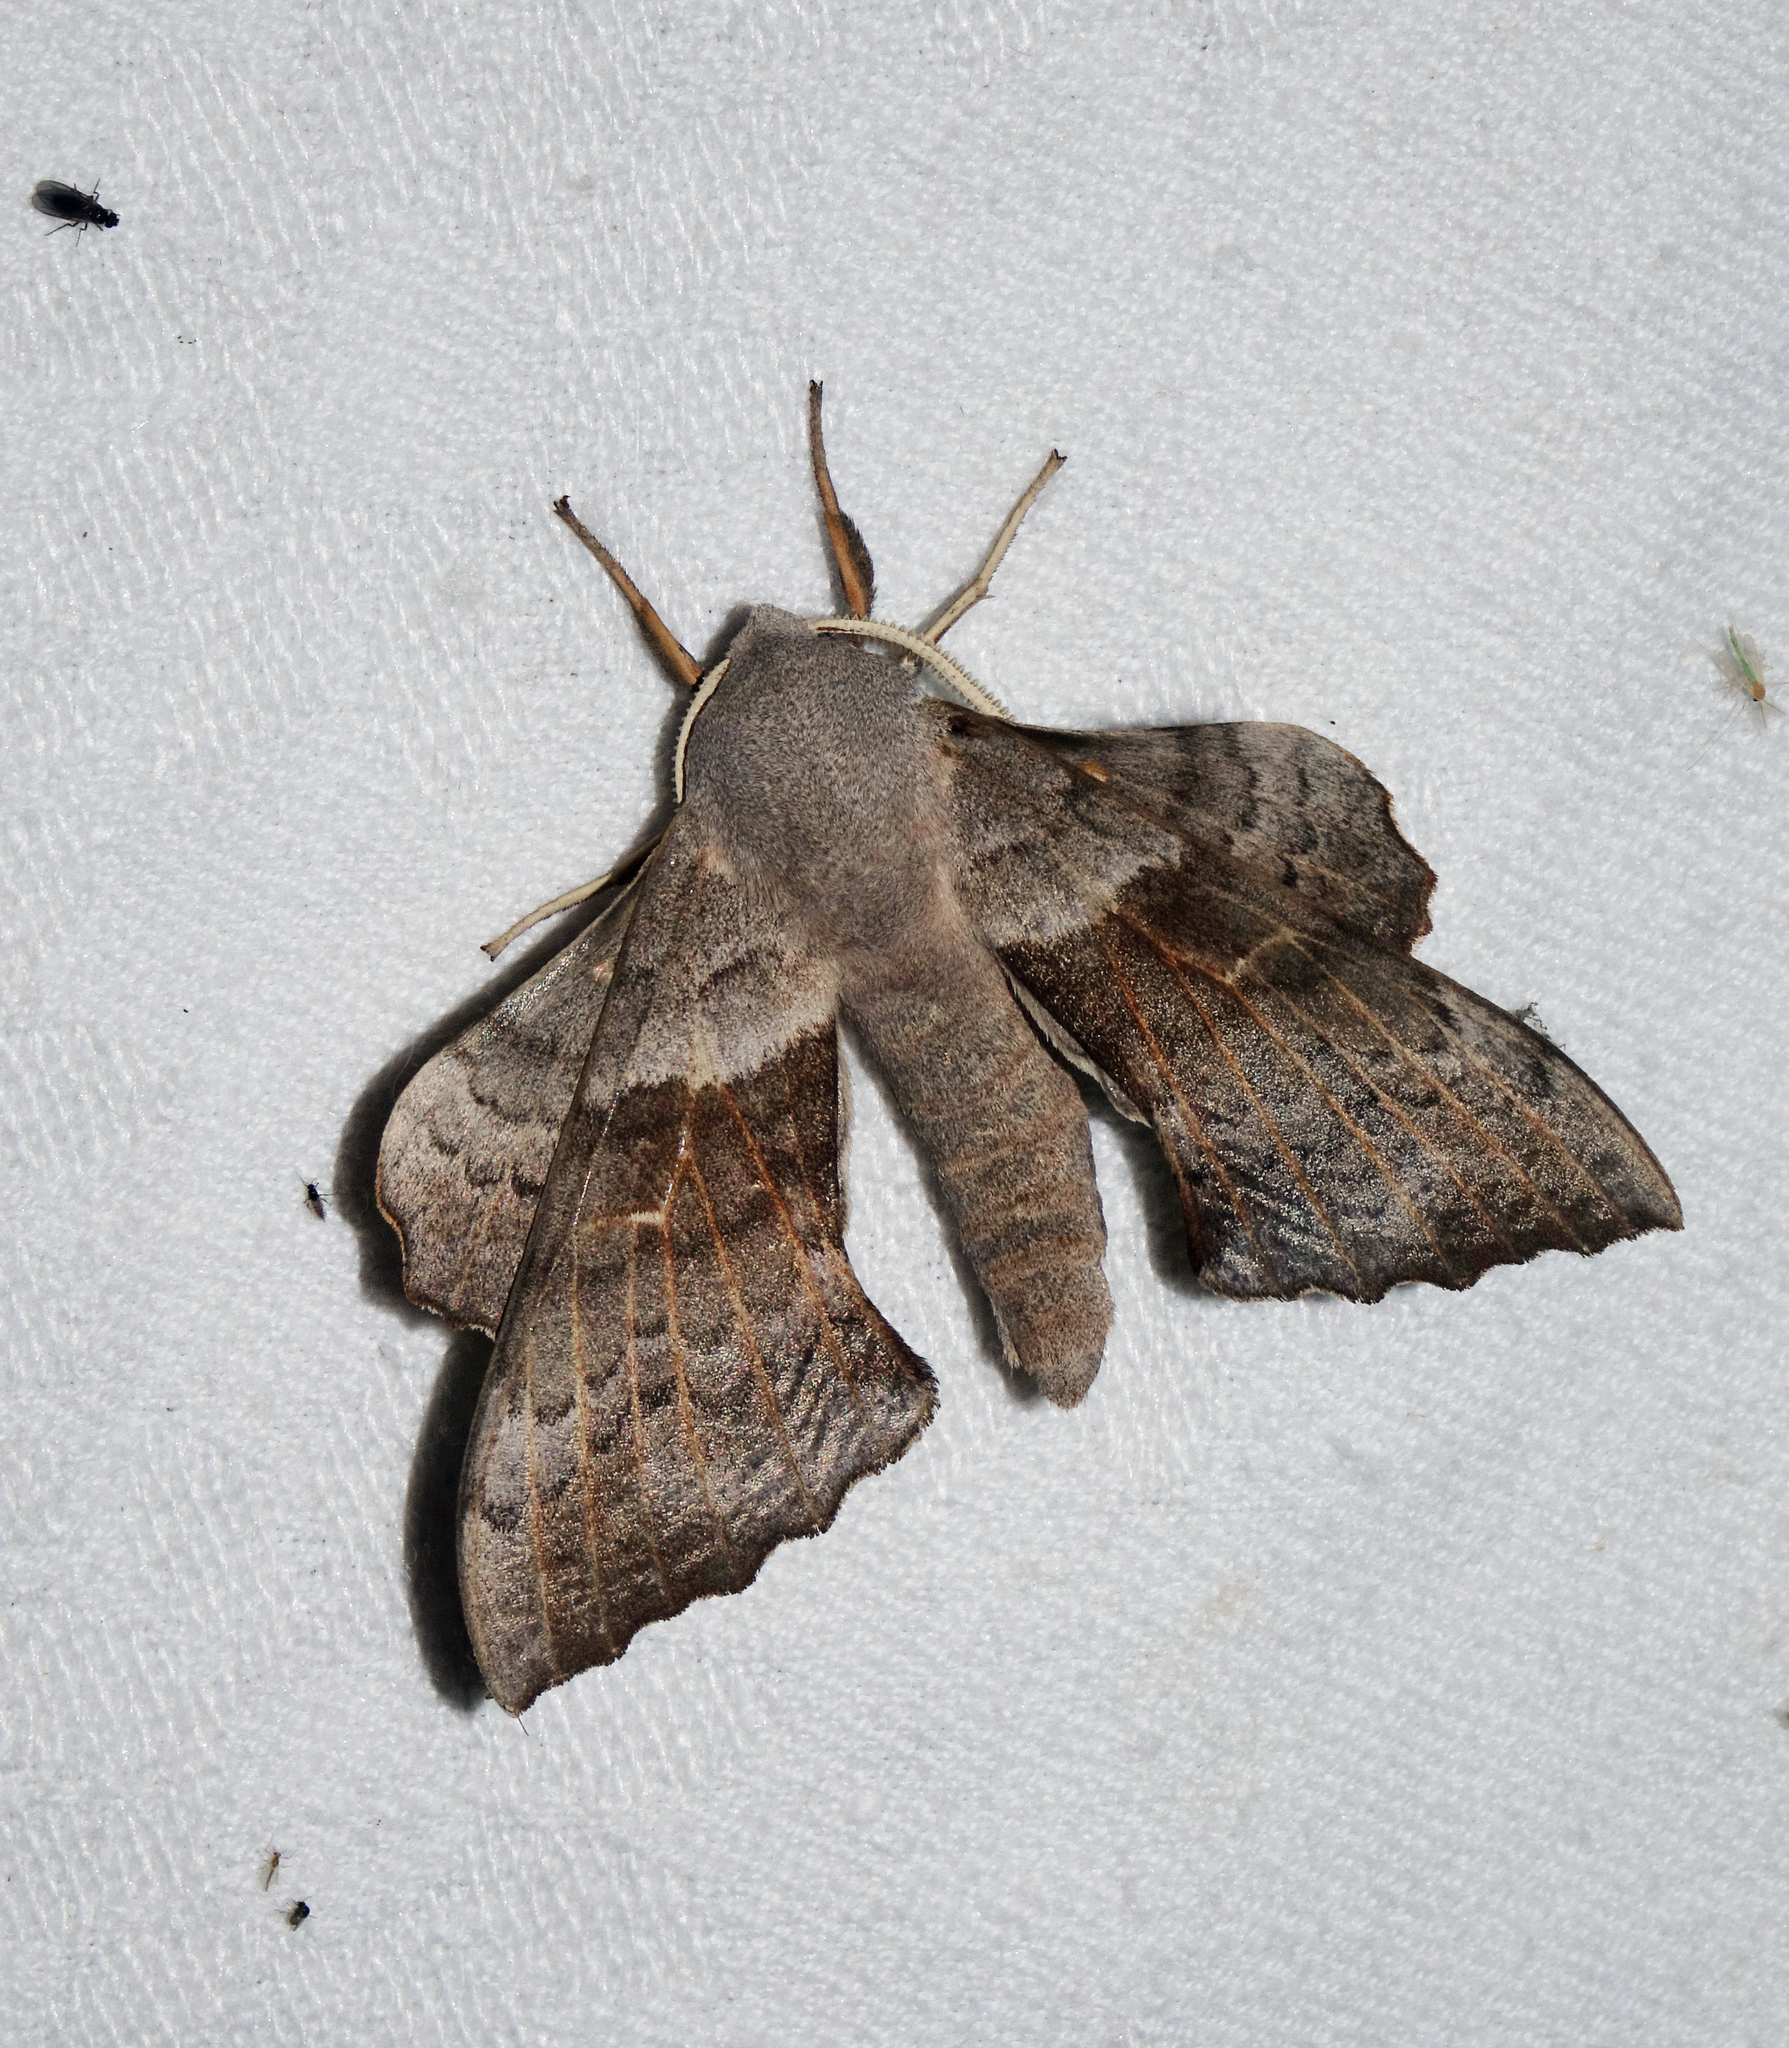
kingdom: Animalia
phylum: Arthropoda
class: Insecta
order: Lepidoptera
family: Sphingidae
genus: Laothoe
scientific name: Laothoe populi
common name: Poplar hawk-moth
